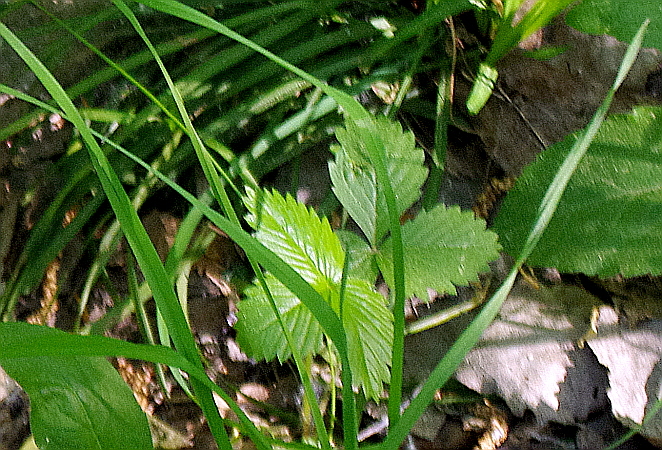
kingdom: Plantae
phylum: Tracheophyta
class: Magnoliopsida
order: Rosales
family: Rosaceae
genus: Fragaria
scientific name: Fragaria vesca
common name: Wild strawberry
